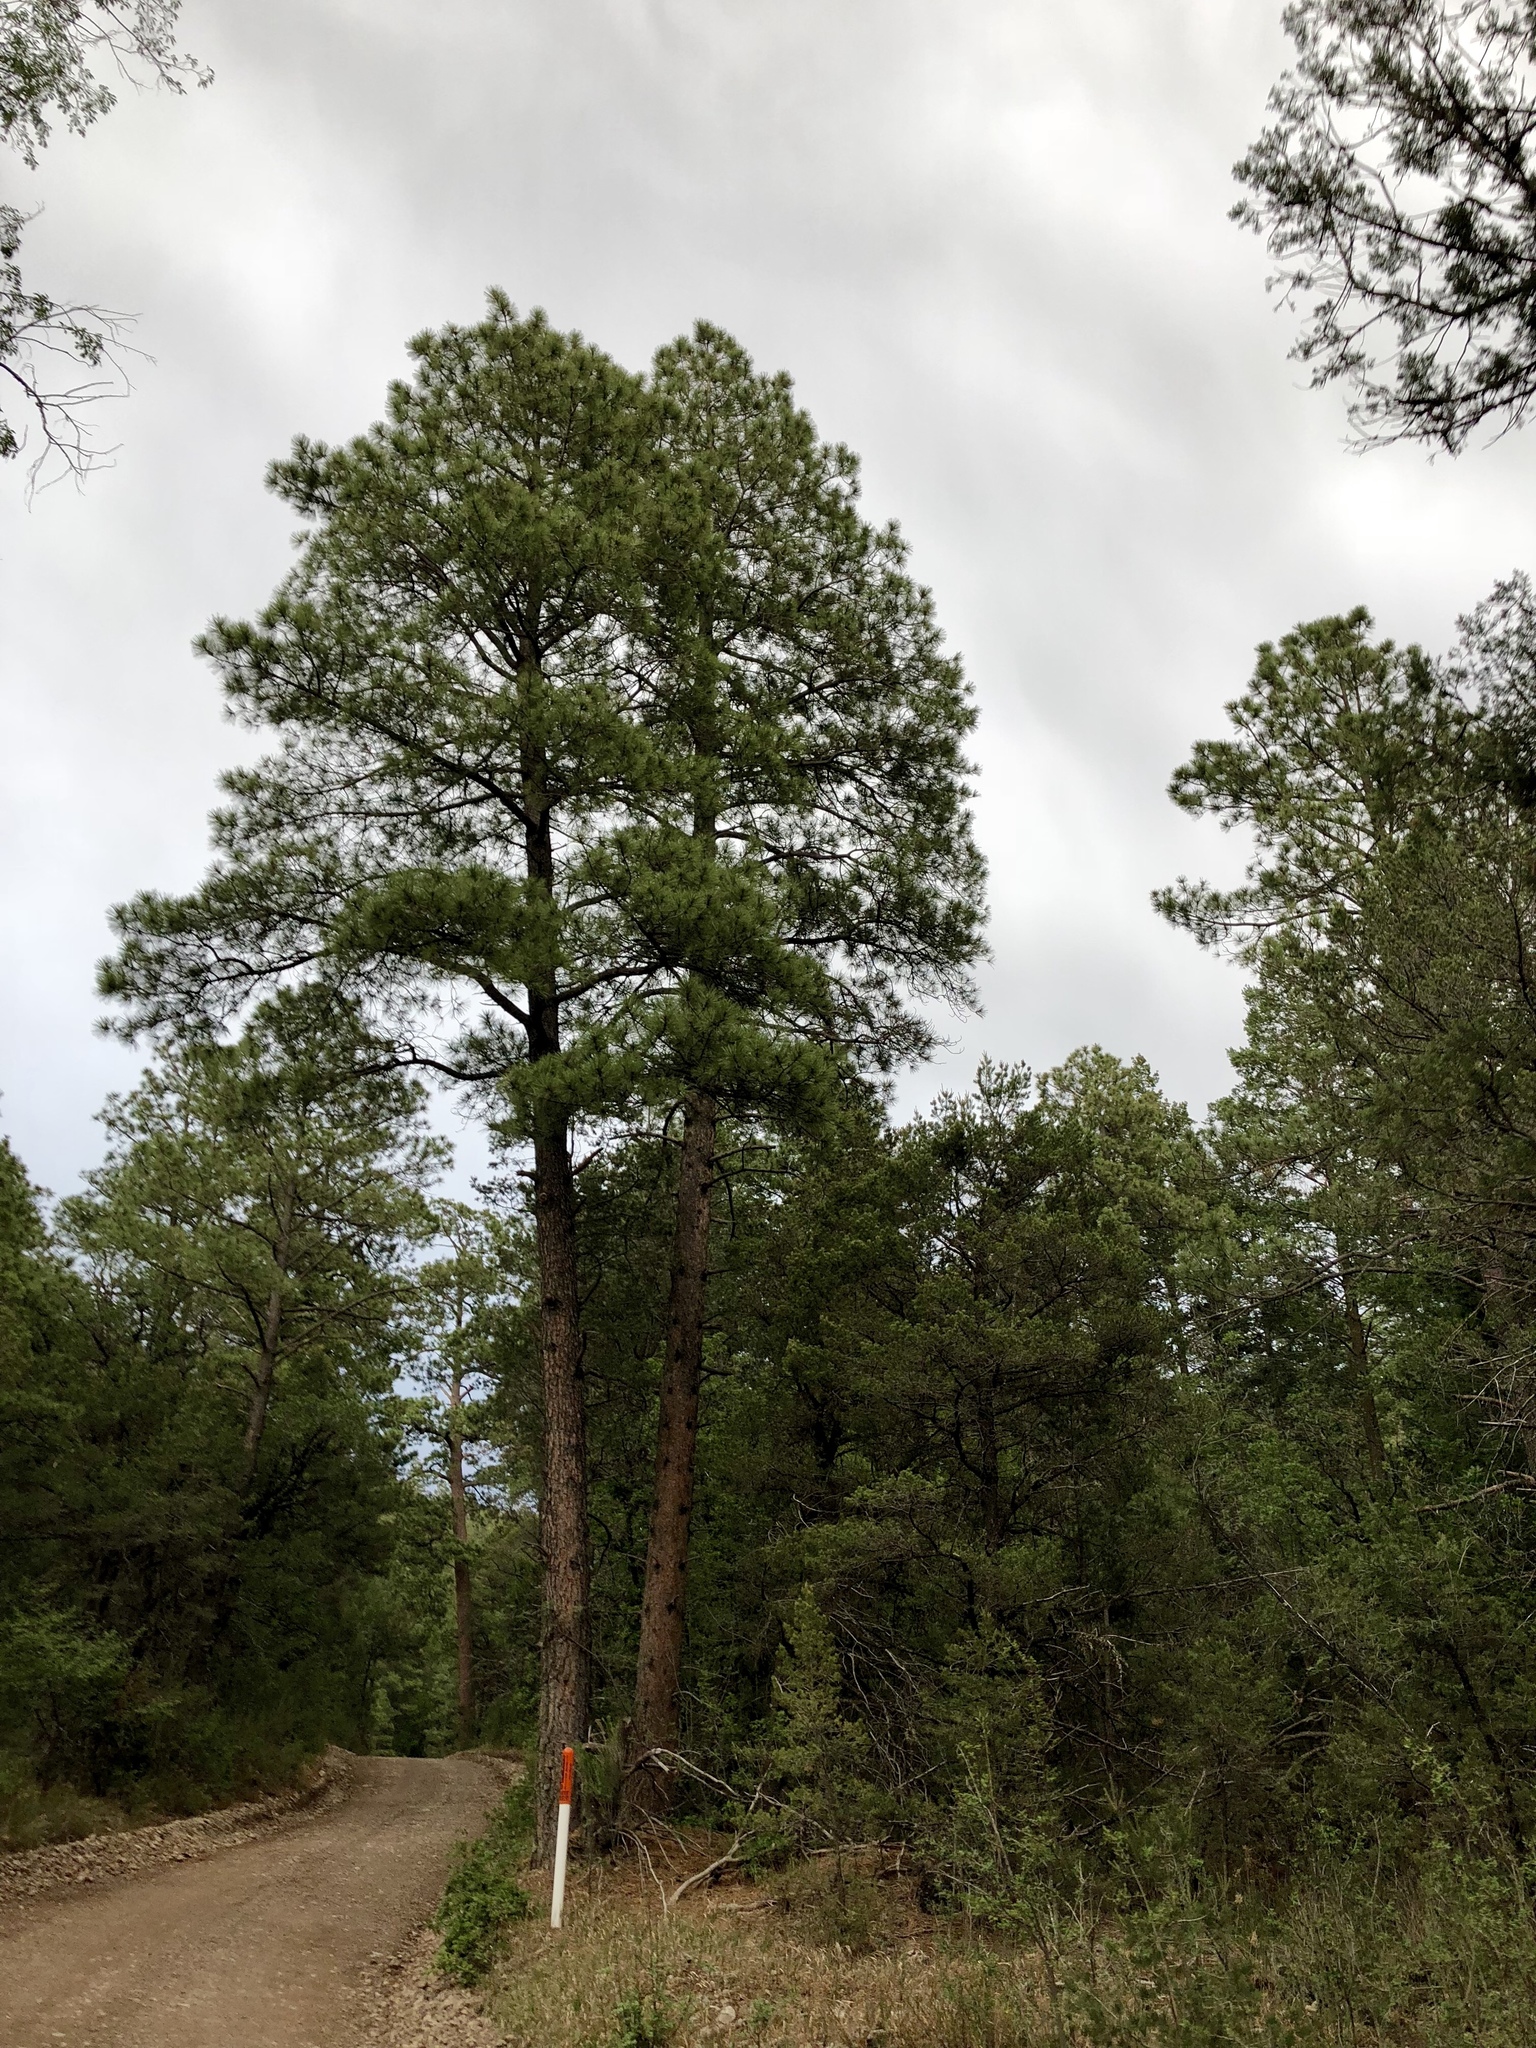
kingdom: Plantae
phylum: Tracheophyta
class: Pinopsida
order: Pinales
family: Pinaceae
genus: Pinus
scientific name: Pinus ponderosa
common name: Western yellow-pine
